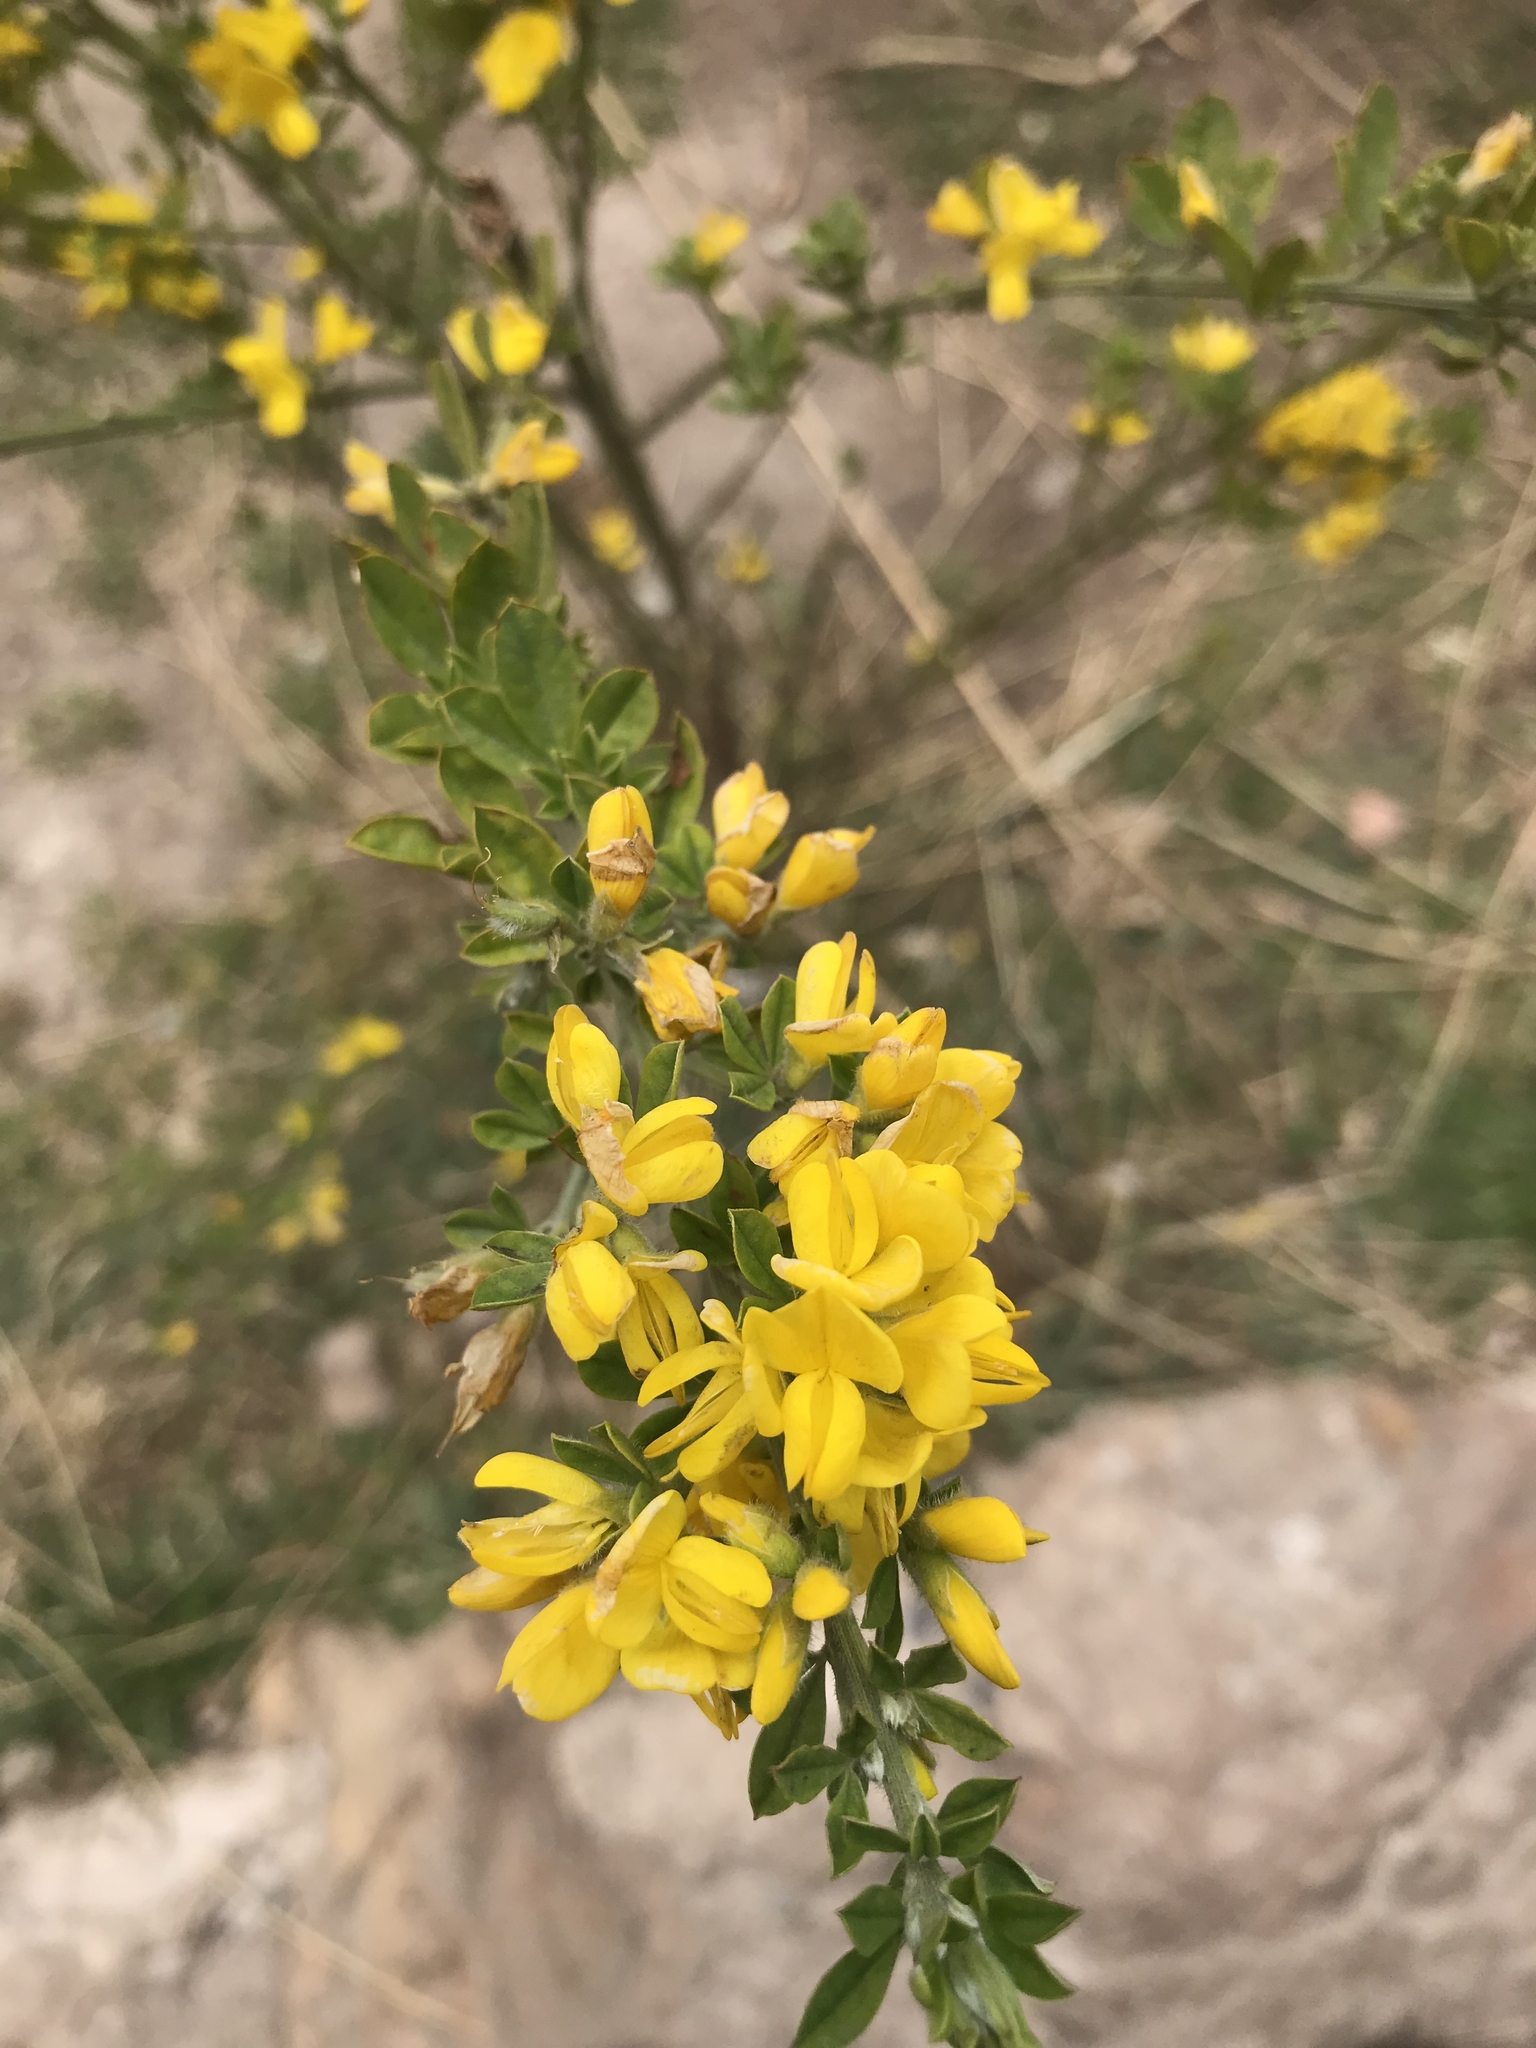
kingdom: Plantae
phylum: Tracheophyta
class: Magnoliopsida
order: Fabales
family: Fabaceae
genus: Genista
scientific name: Genista monspessulana
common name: Montpellier broom
